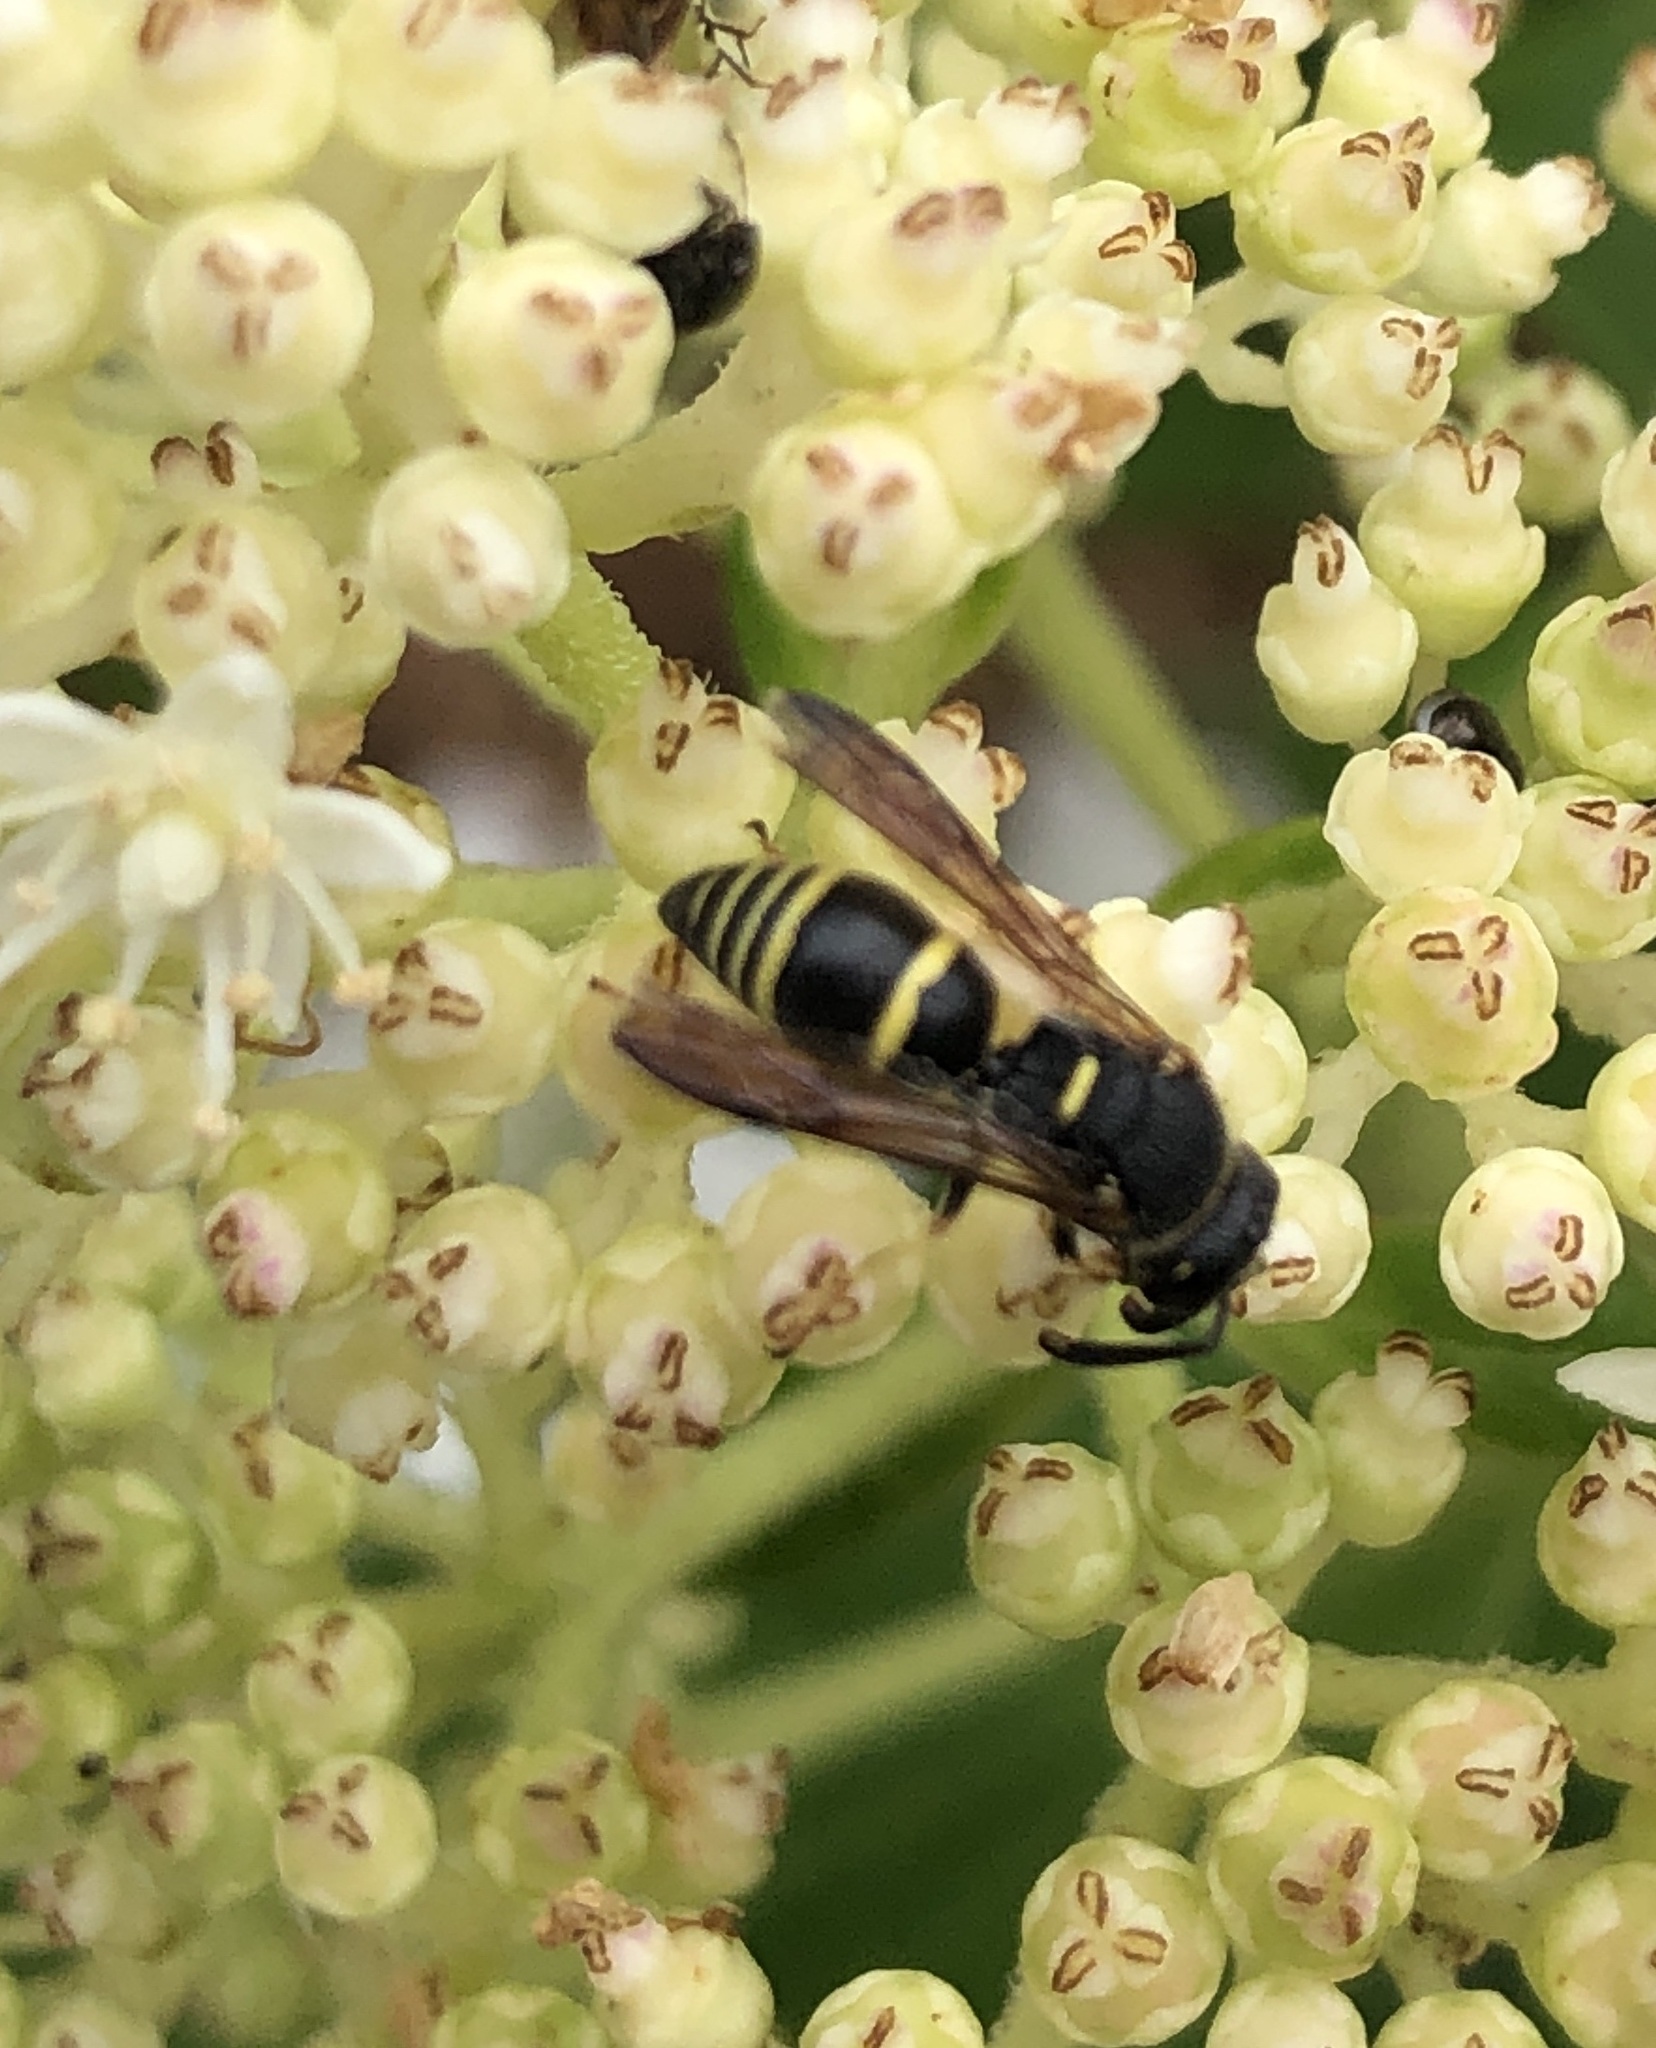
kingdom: Animalia
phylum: Arthropoda
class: Insecta
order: Hymenoptera
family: Eumenidae
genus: Euodynerus
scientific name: Euodynerus foraminatus
